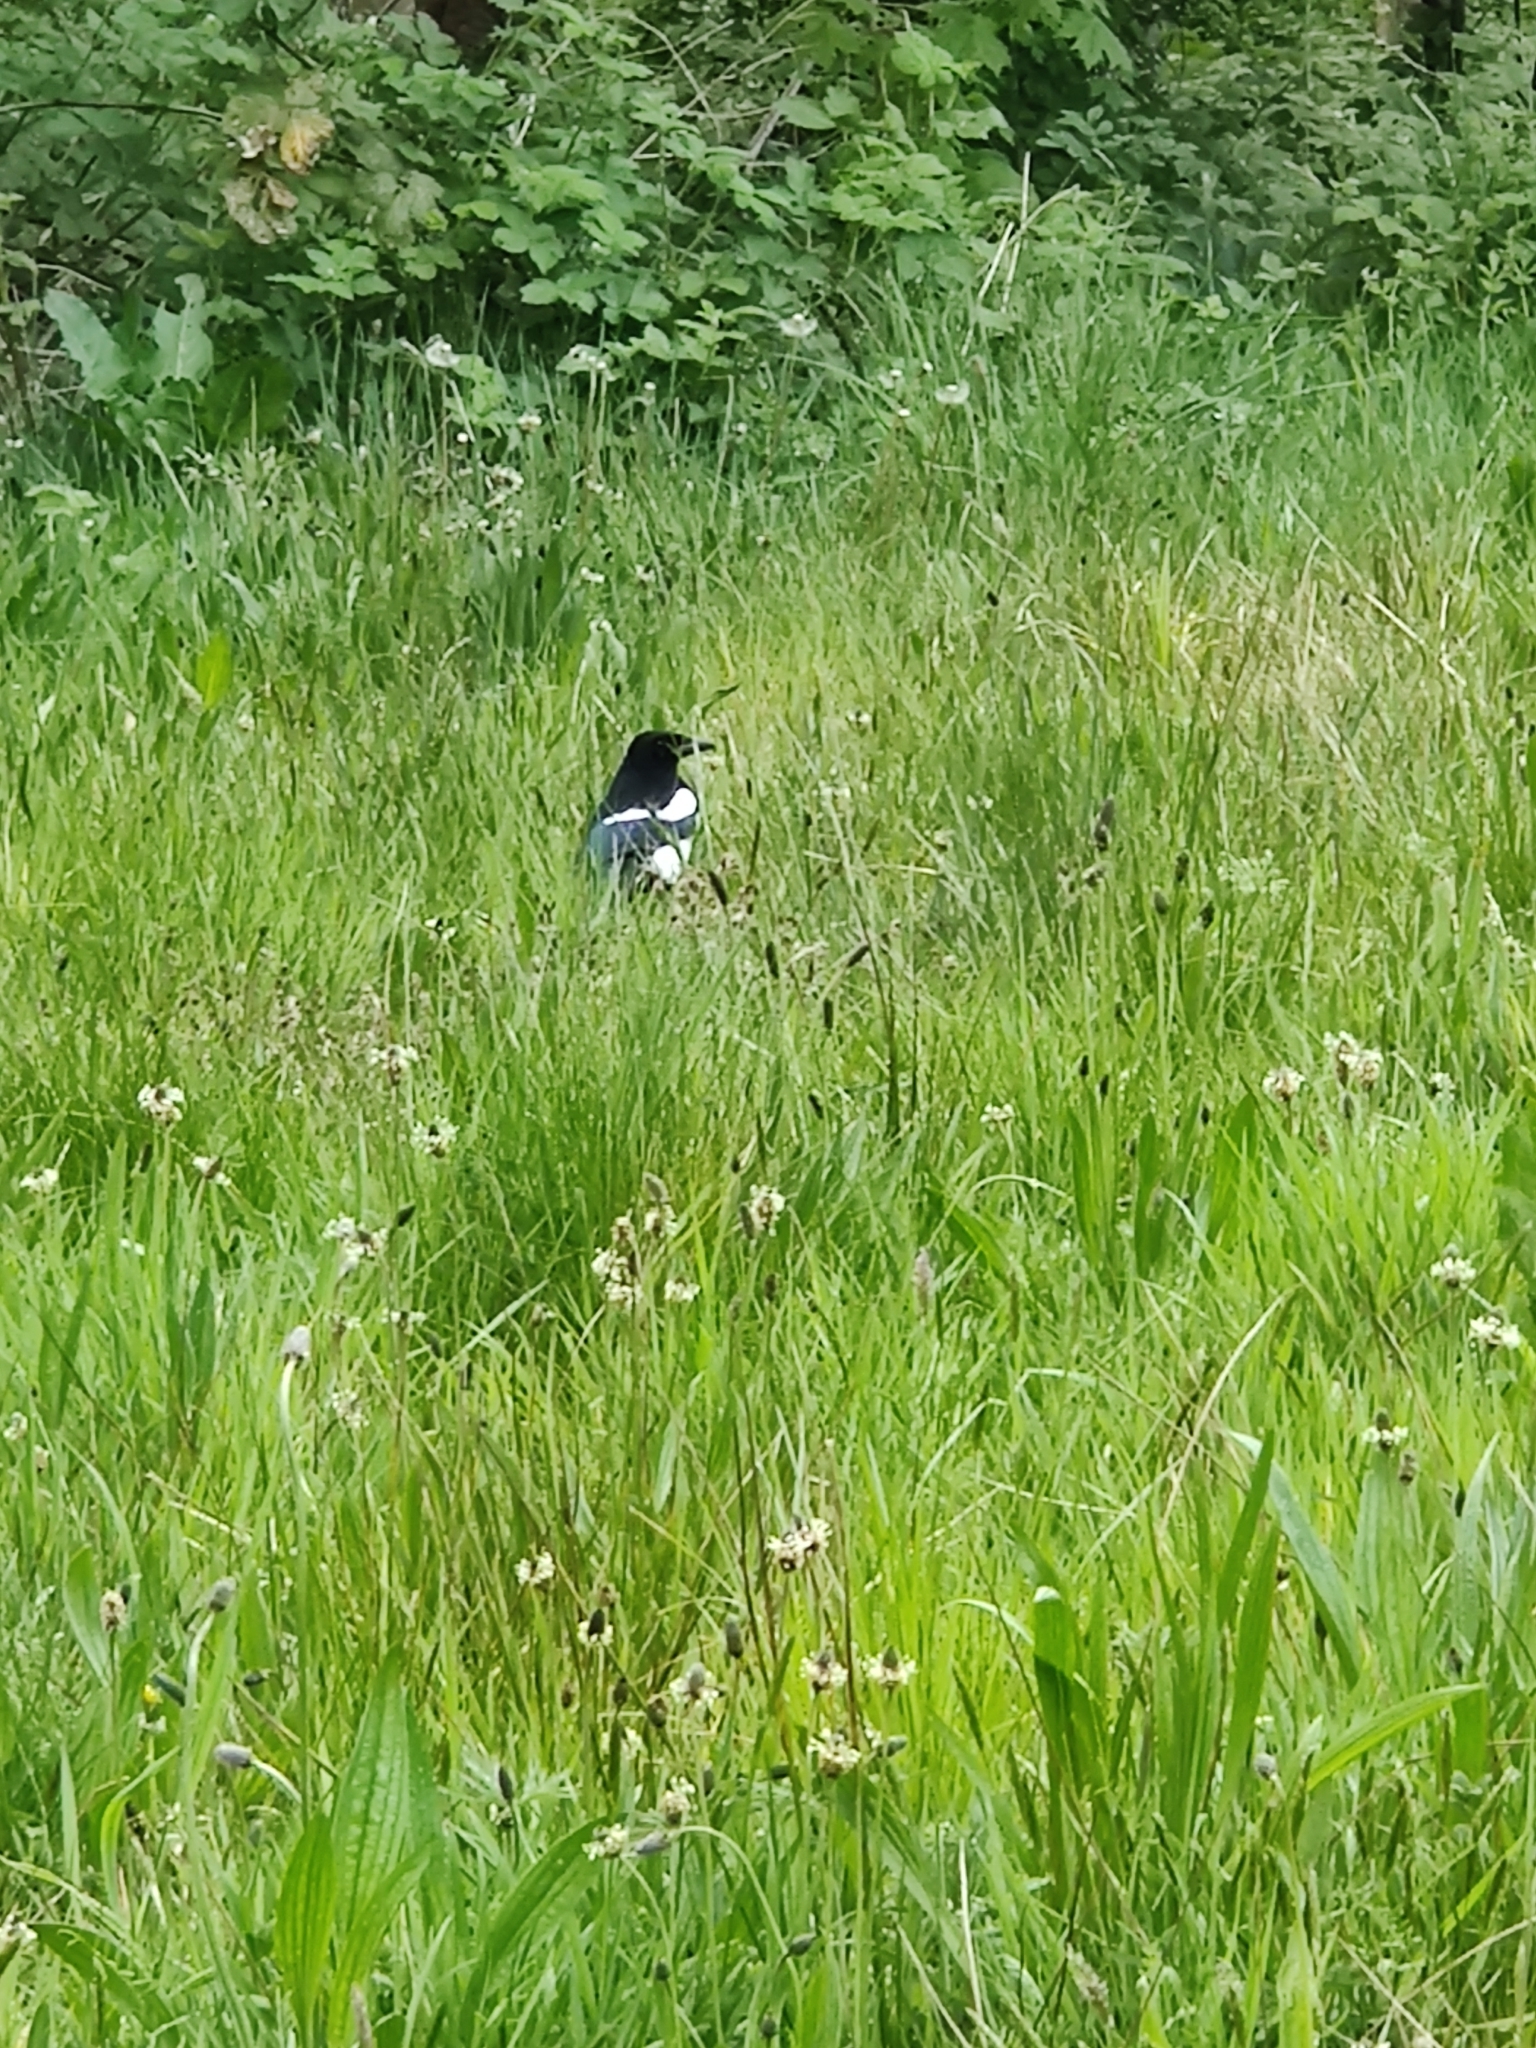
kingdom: Animalia
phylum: Chordata
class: Aves
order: Passeriformes
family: Corvidae
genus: Pica
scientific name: Pica pica
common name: Eurasian magpie
